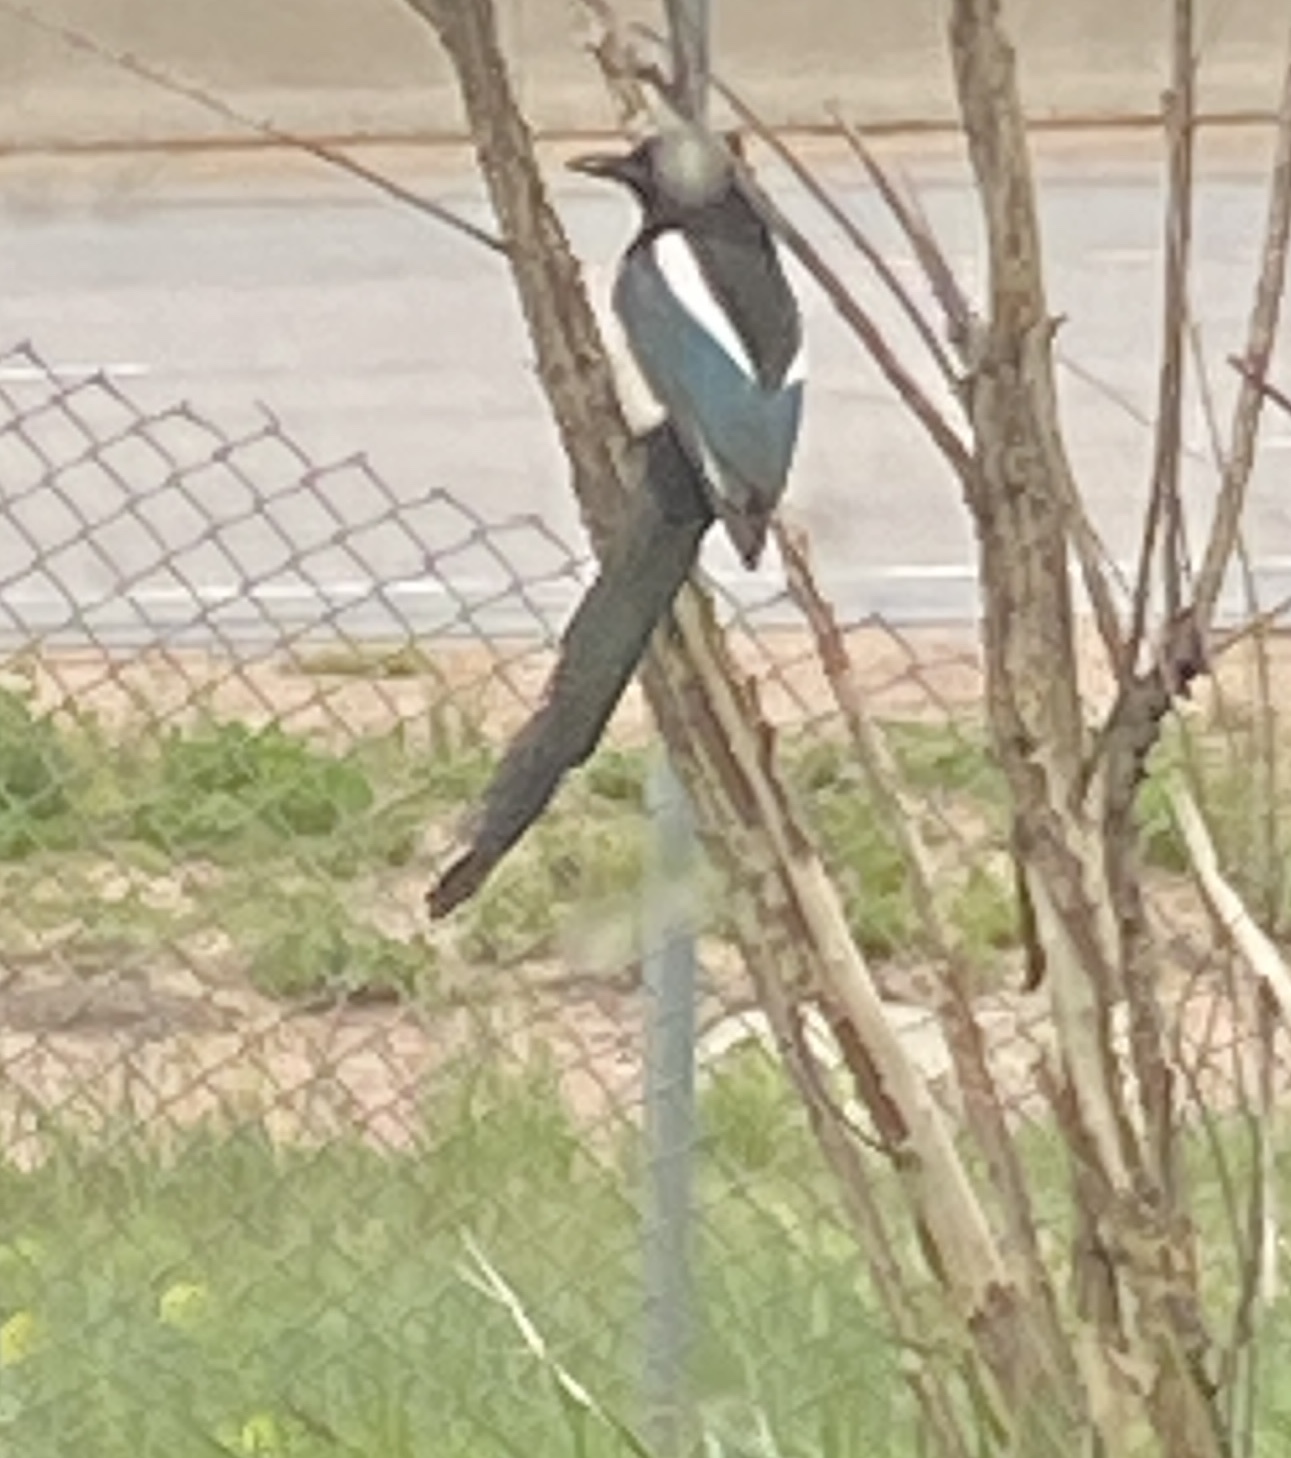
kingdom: Animalia
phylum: Chordata
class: Aves
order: Passeriformes
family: Corvidae
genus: Pica
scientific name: Pica hudsonia
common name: Black-billed magpie
